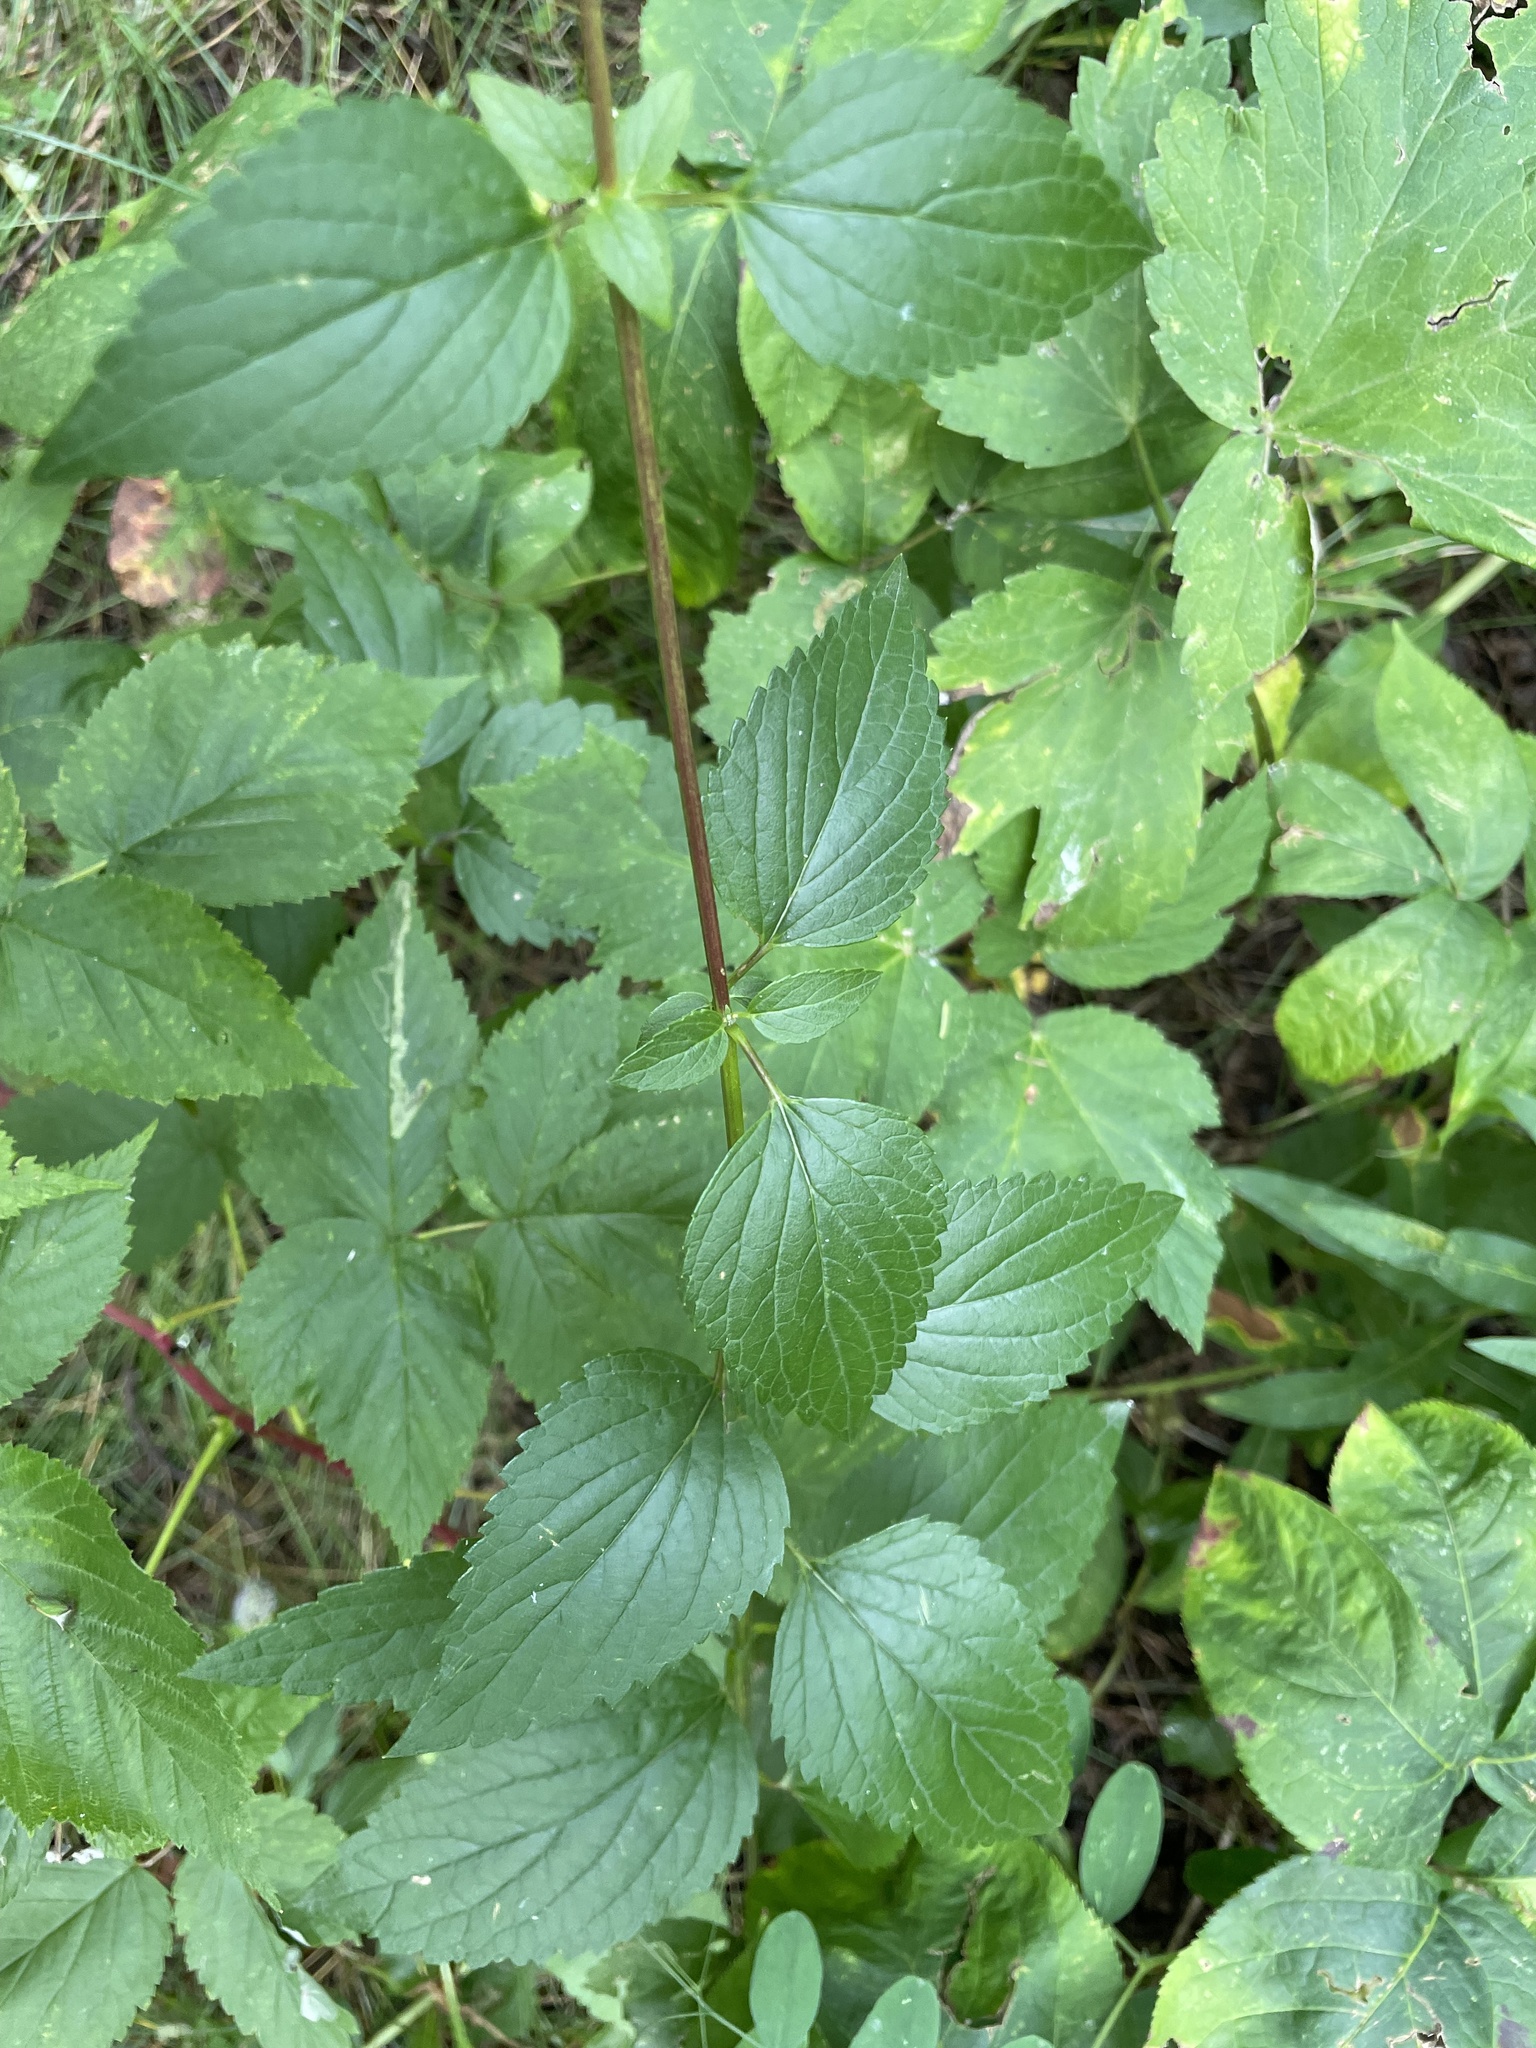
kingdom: Plantae
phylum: Tracheophyta
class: Magnoliopsida
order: Lamiales
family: Lamiaceae
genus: Agastache
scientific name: Agastache foeniculum
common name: Anise hyssop
